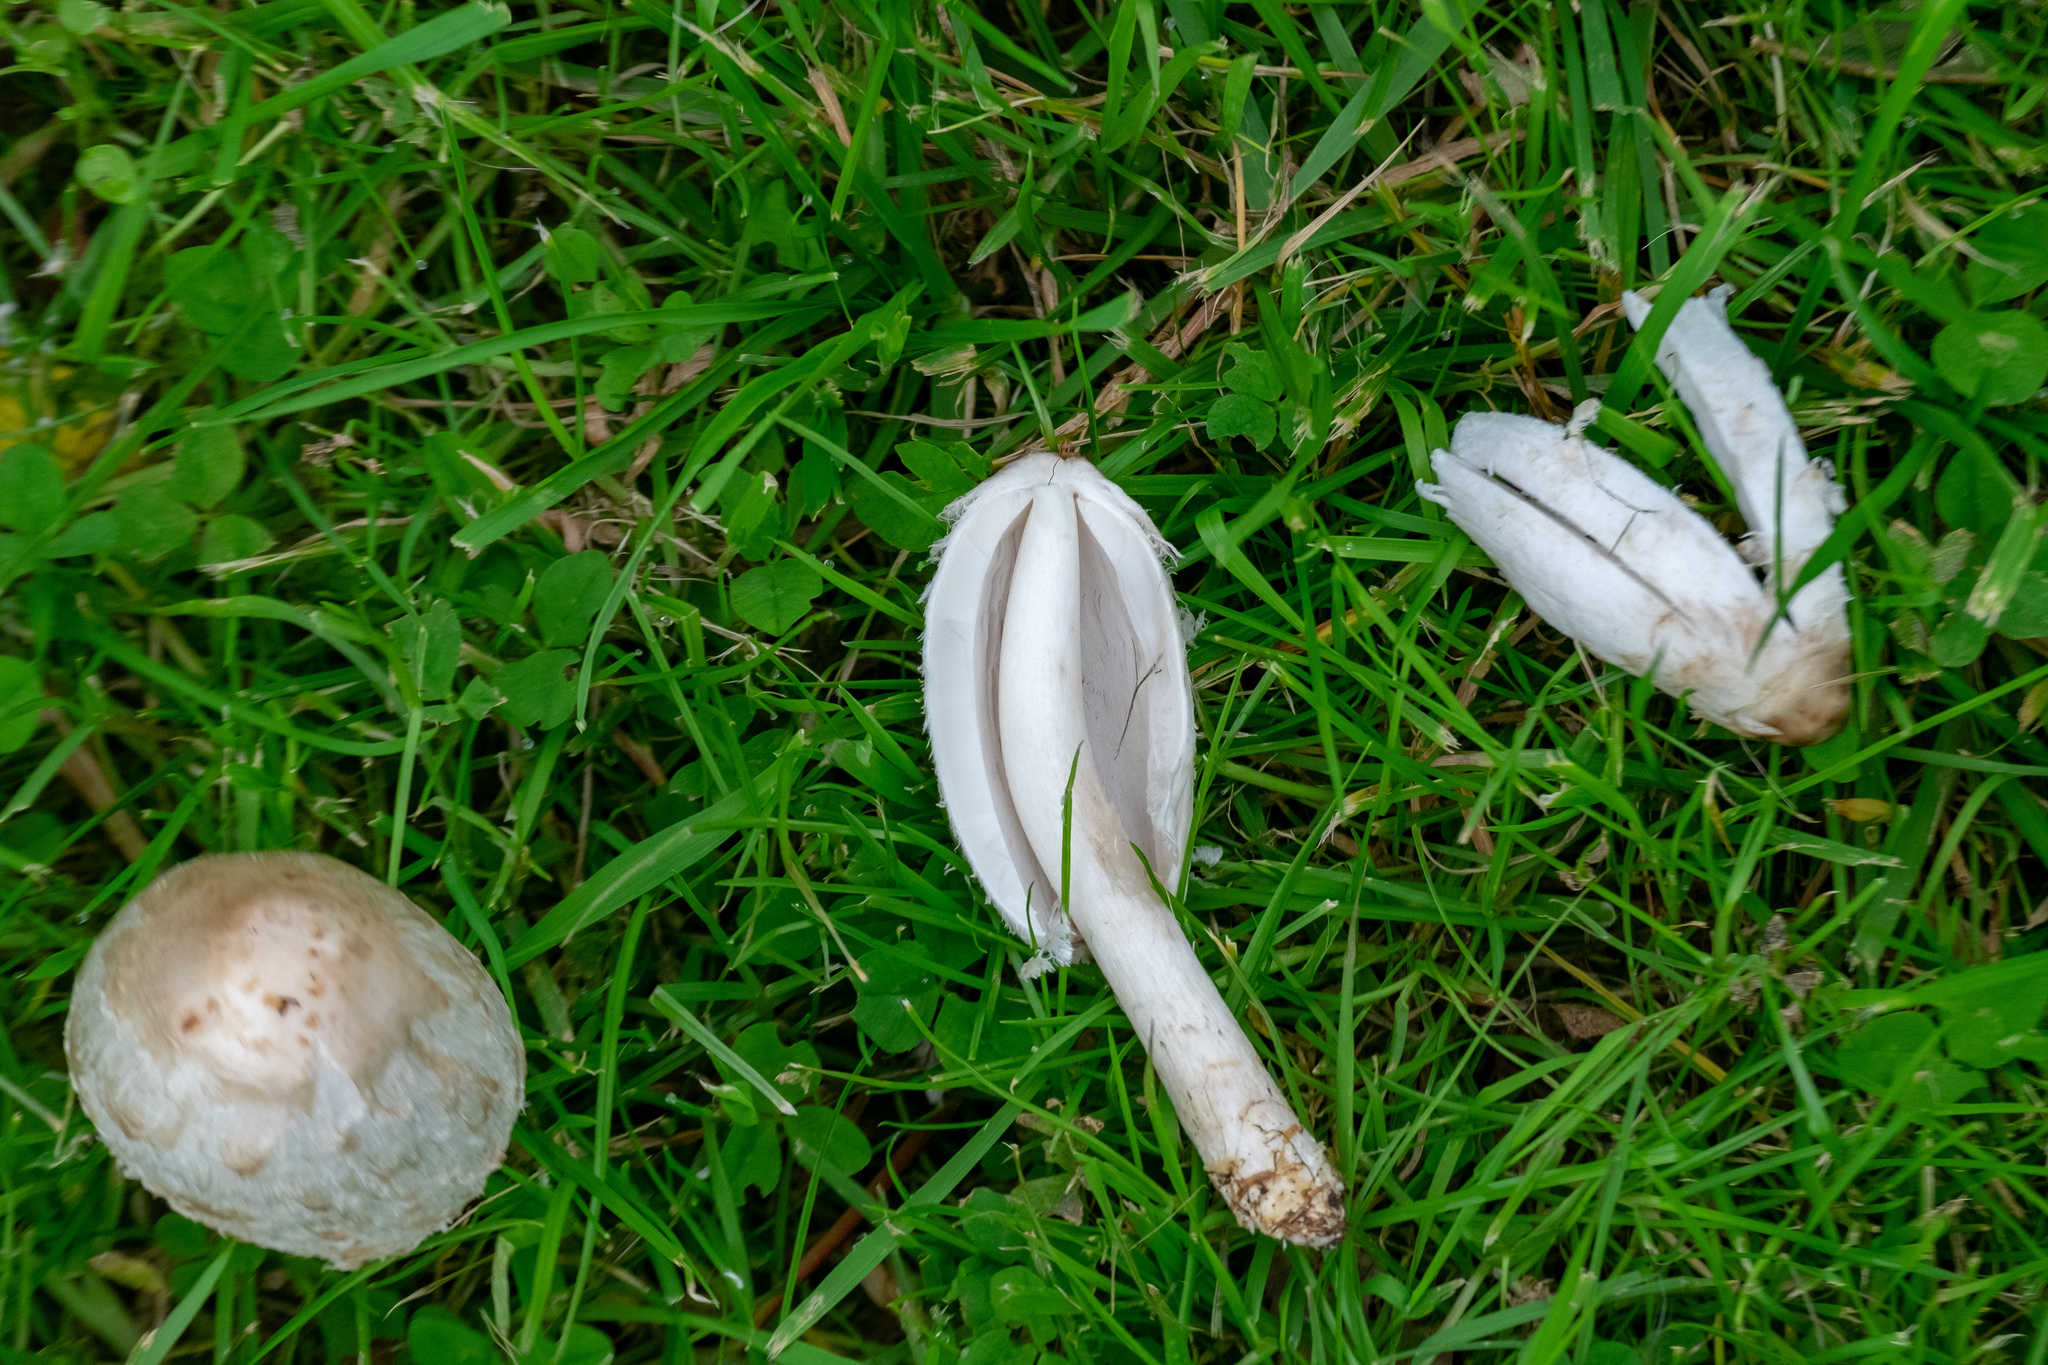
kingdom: Fungi
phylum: Basidiomycota
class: Agaricomycetes
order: Agaricales
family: Agaricaceae
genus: Coprinus
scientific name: Coprinus comatus
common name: Lawyer's wig
